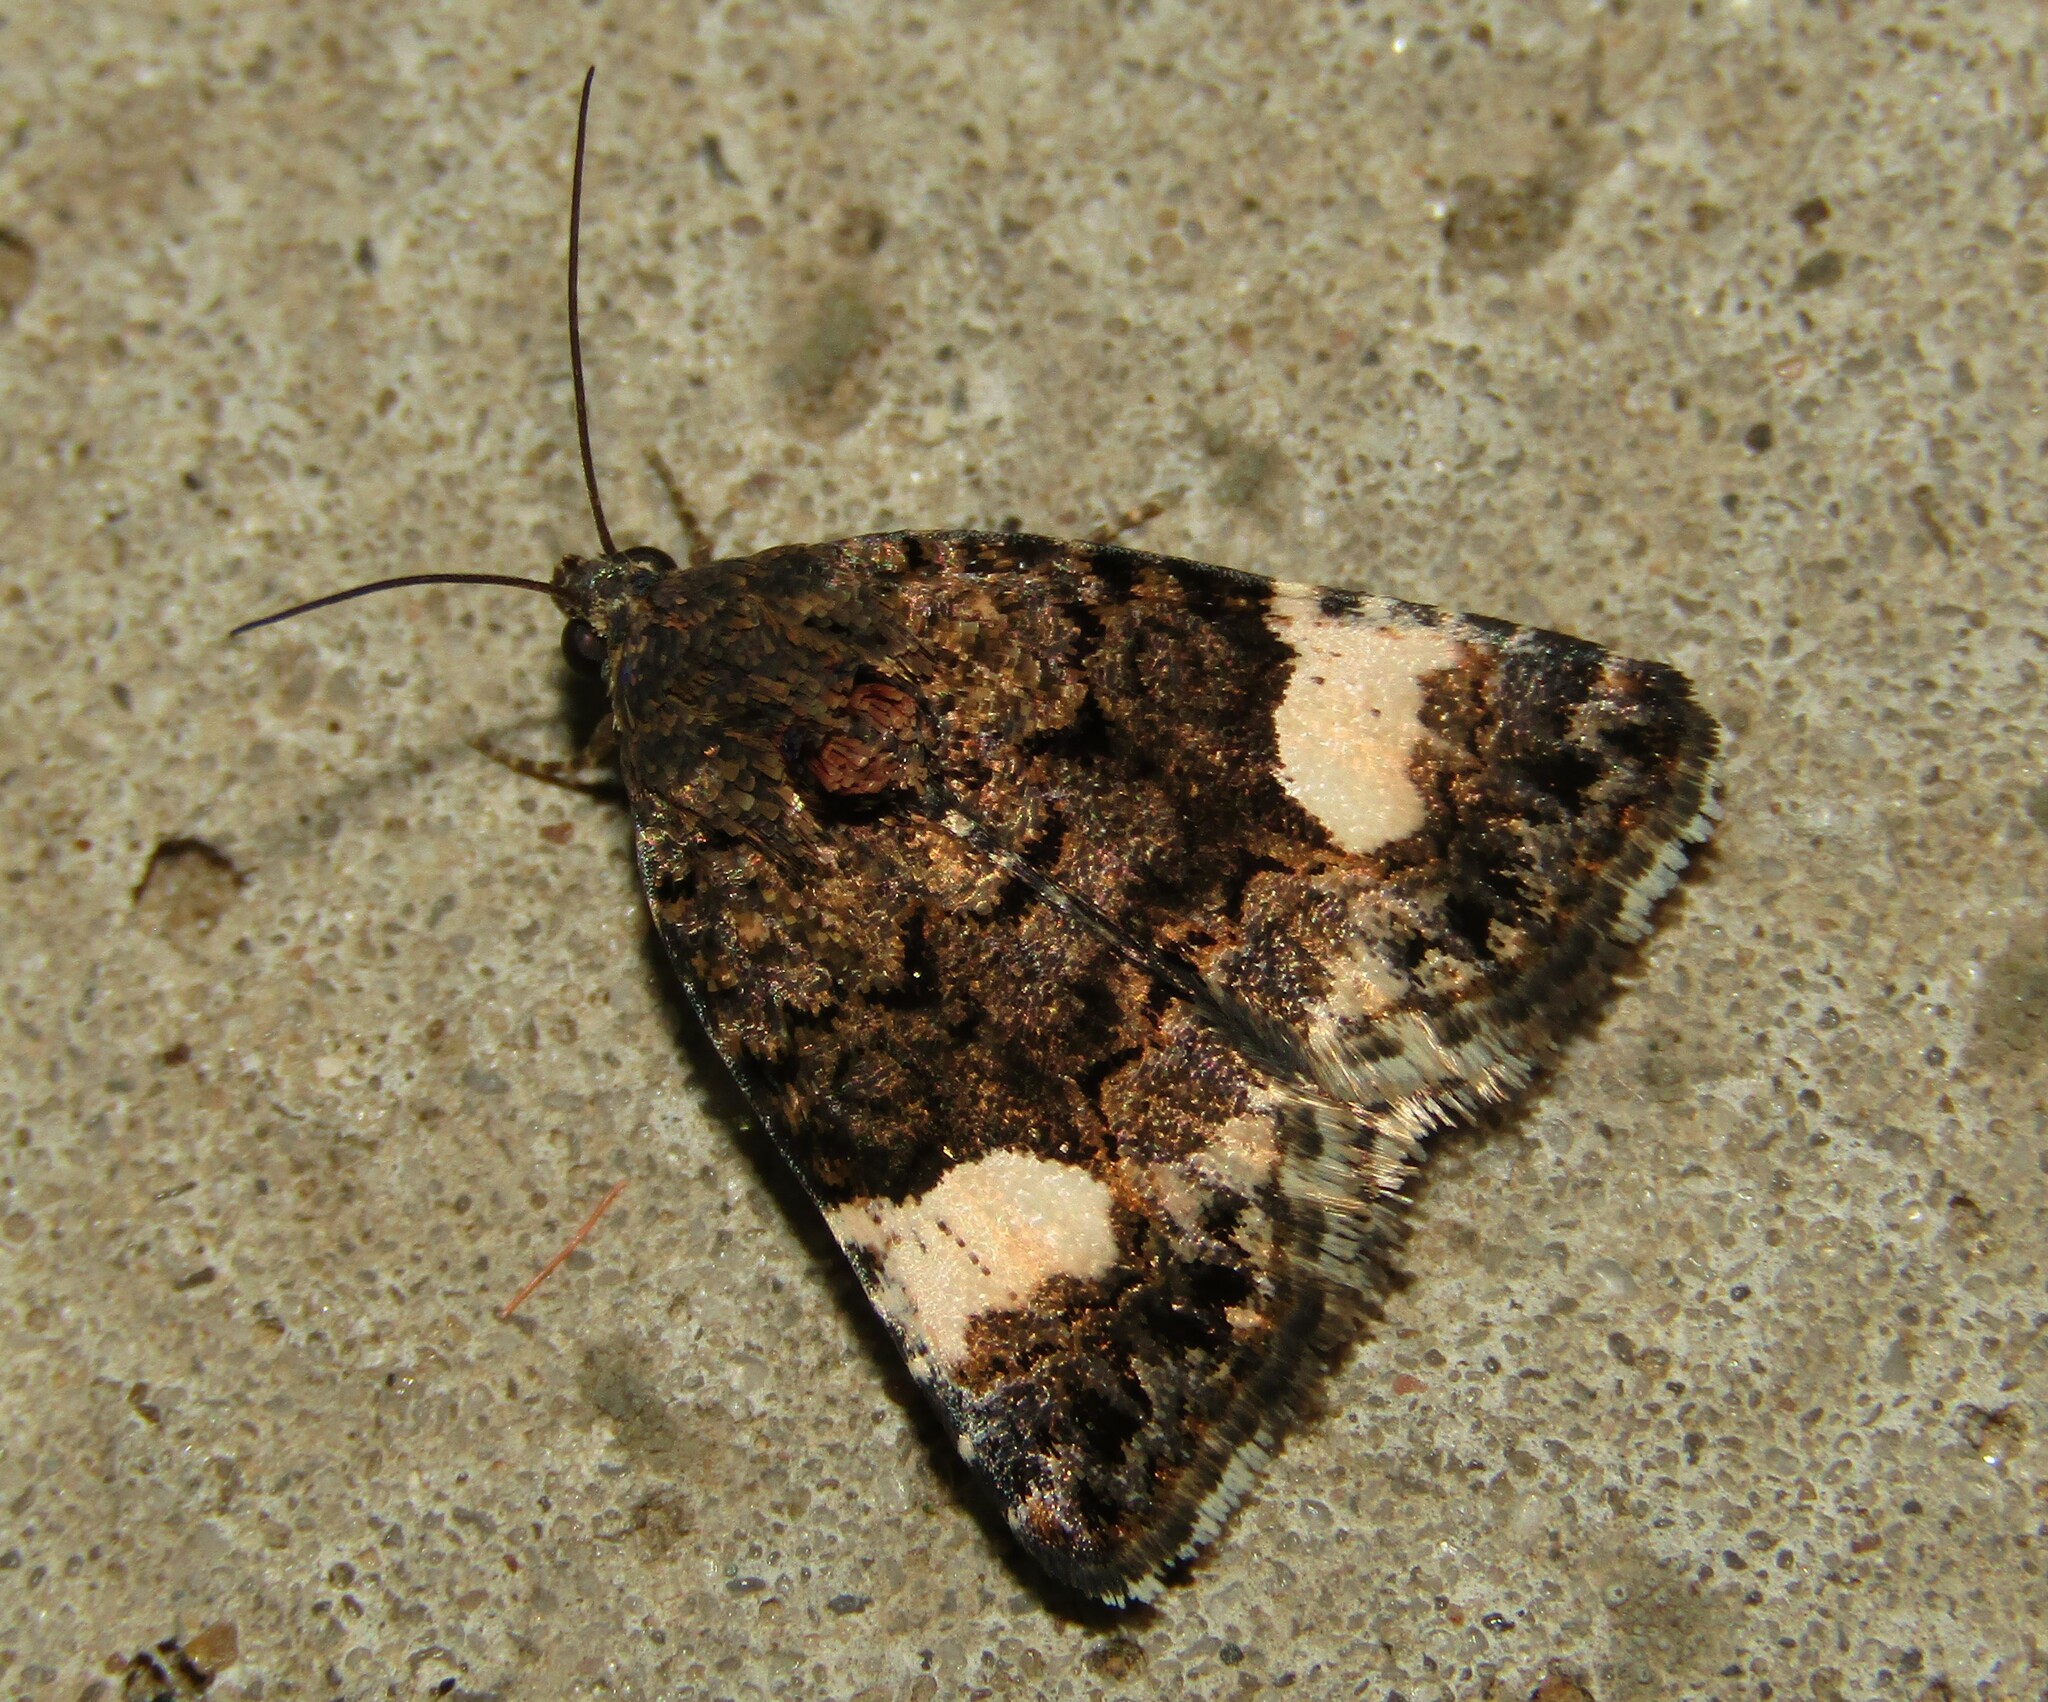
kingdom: Animalia
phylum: Arthropoda
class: Insecta
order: Lepidoptera
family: Erebidae
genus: Tyta
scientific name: Tyta luctuosa
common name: Four-spotted
